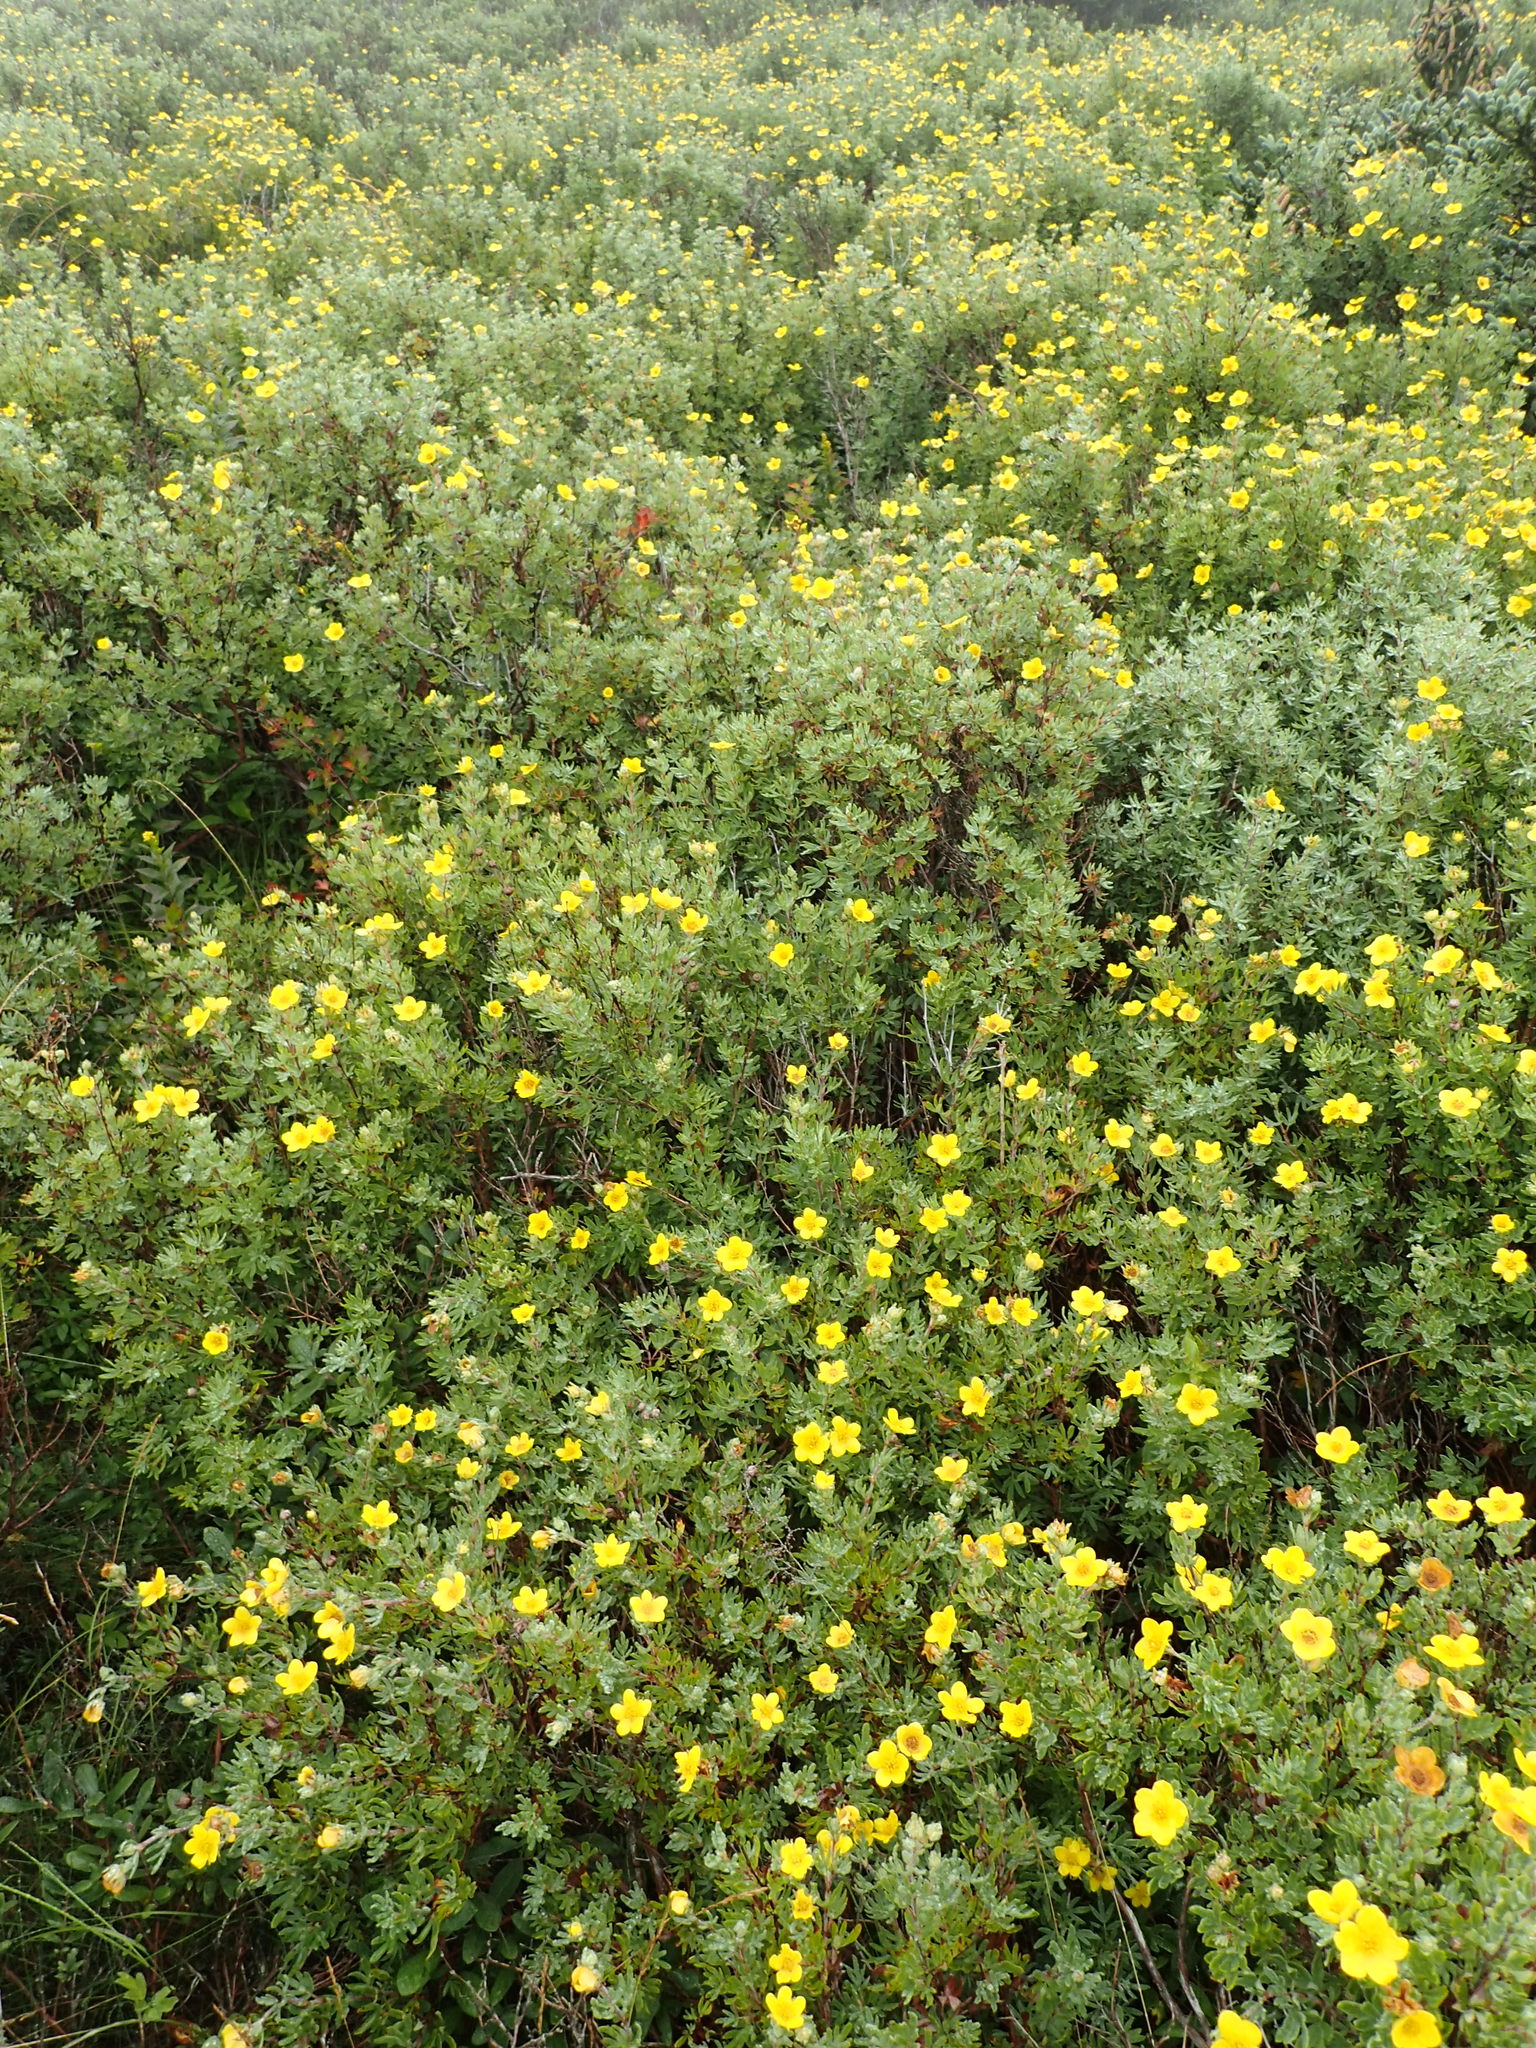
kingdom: Plantae
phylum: Tracheophyta
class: Magnoliopsida
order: Rosales
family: Rosaceae
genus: Dasiphora
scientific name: Dasiphora fruticosa
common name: Shrubby cinquefoil
